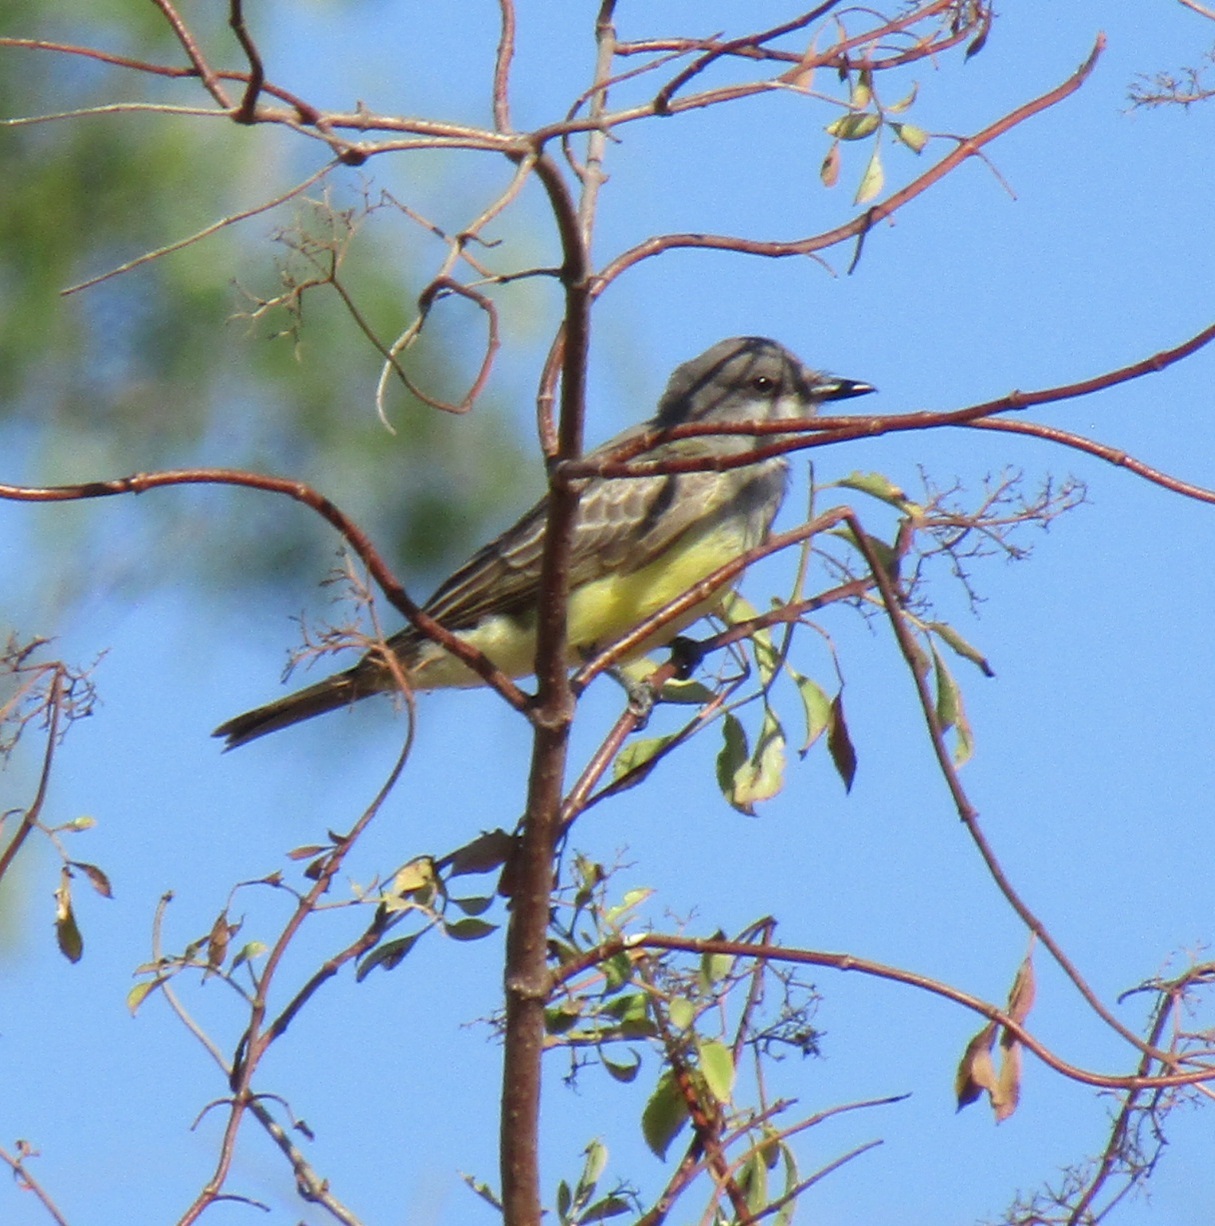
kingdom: Animalia
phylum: Chordata
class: Aves
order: Passeriformes
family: Tyrannidae
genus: Tyrannus
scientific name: Tyrannus vociferans
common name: Cassin's kingbird
